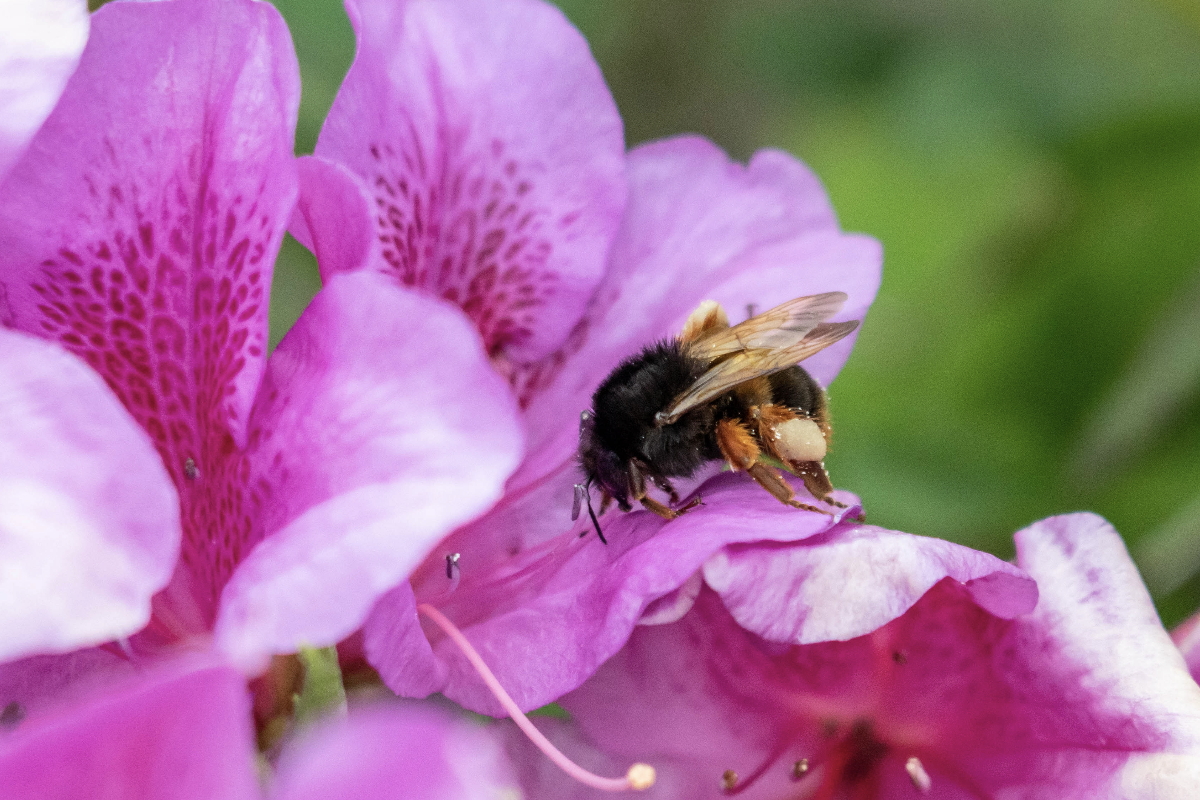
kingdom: Animalia
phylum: Arthropoda
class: Insecta
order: Hymenoptera
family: Apidae
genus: Bombus
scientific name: Bombus eximius
